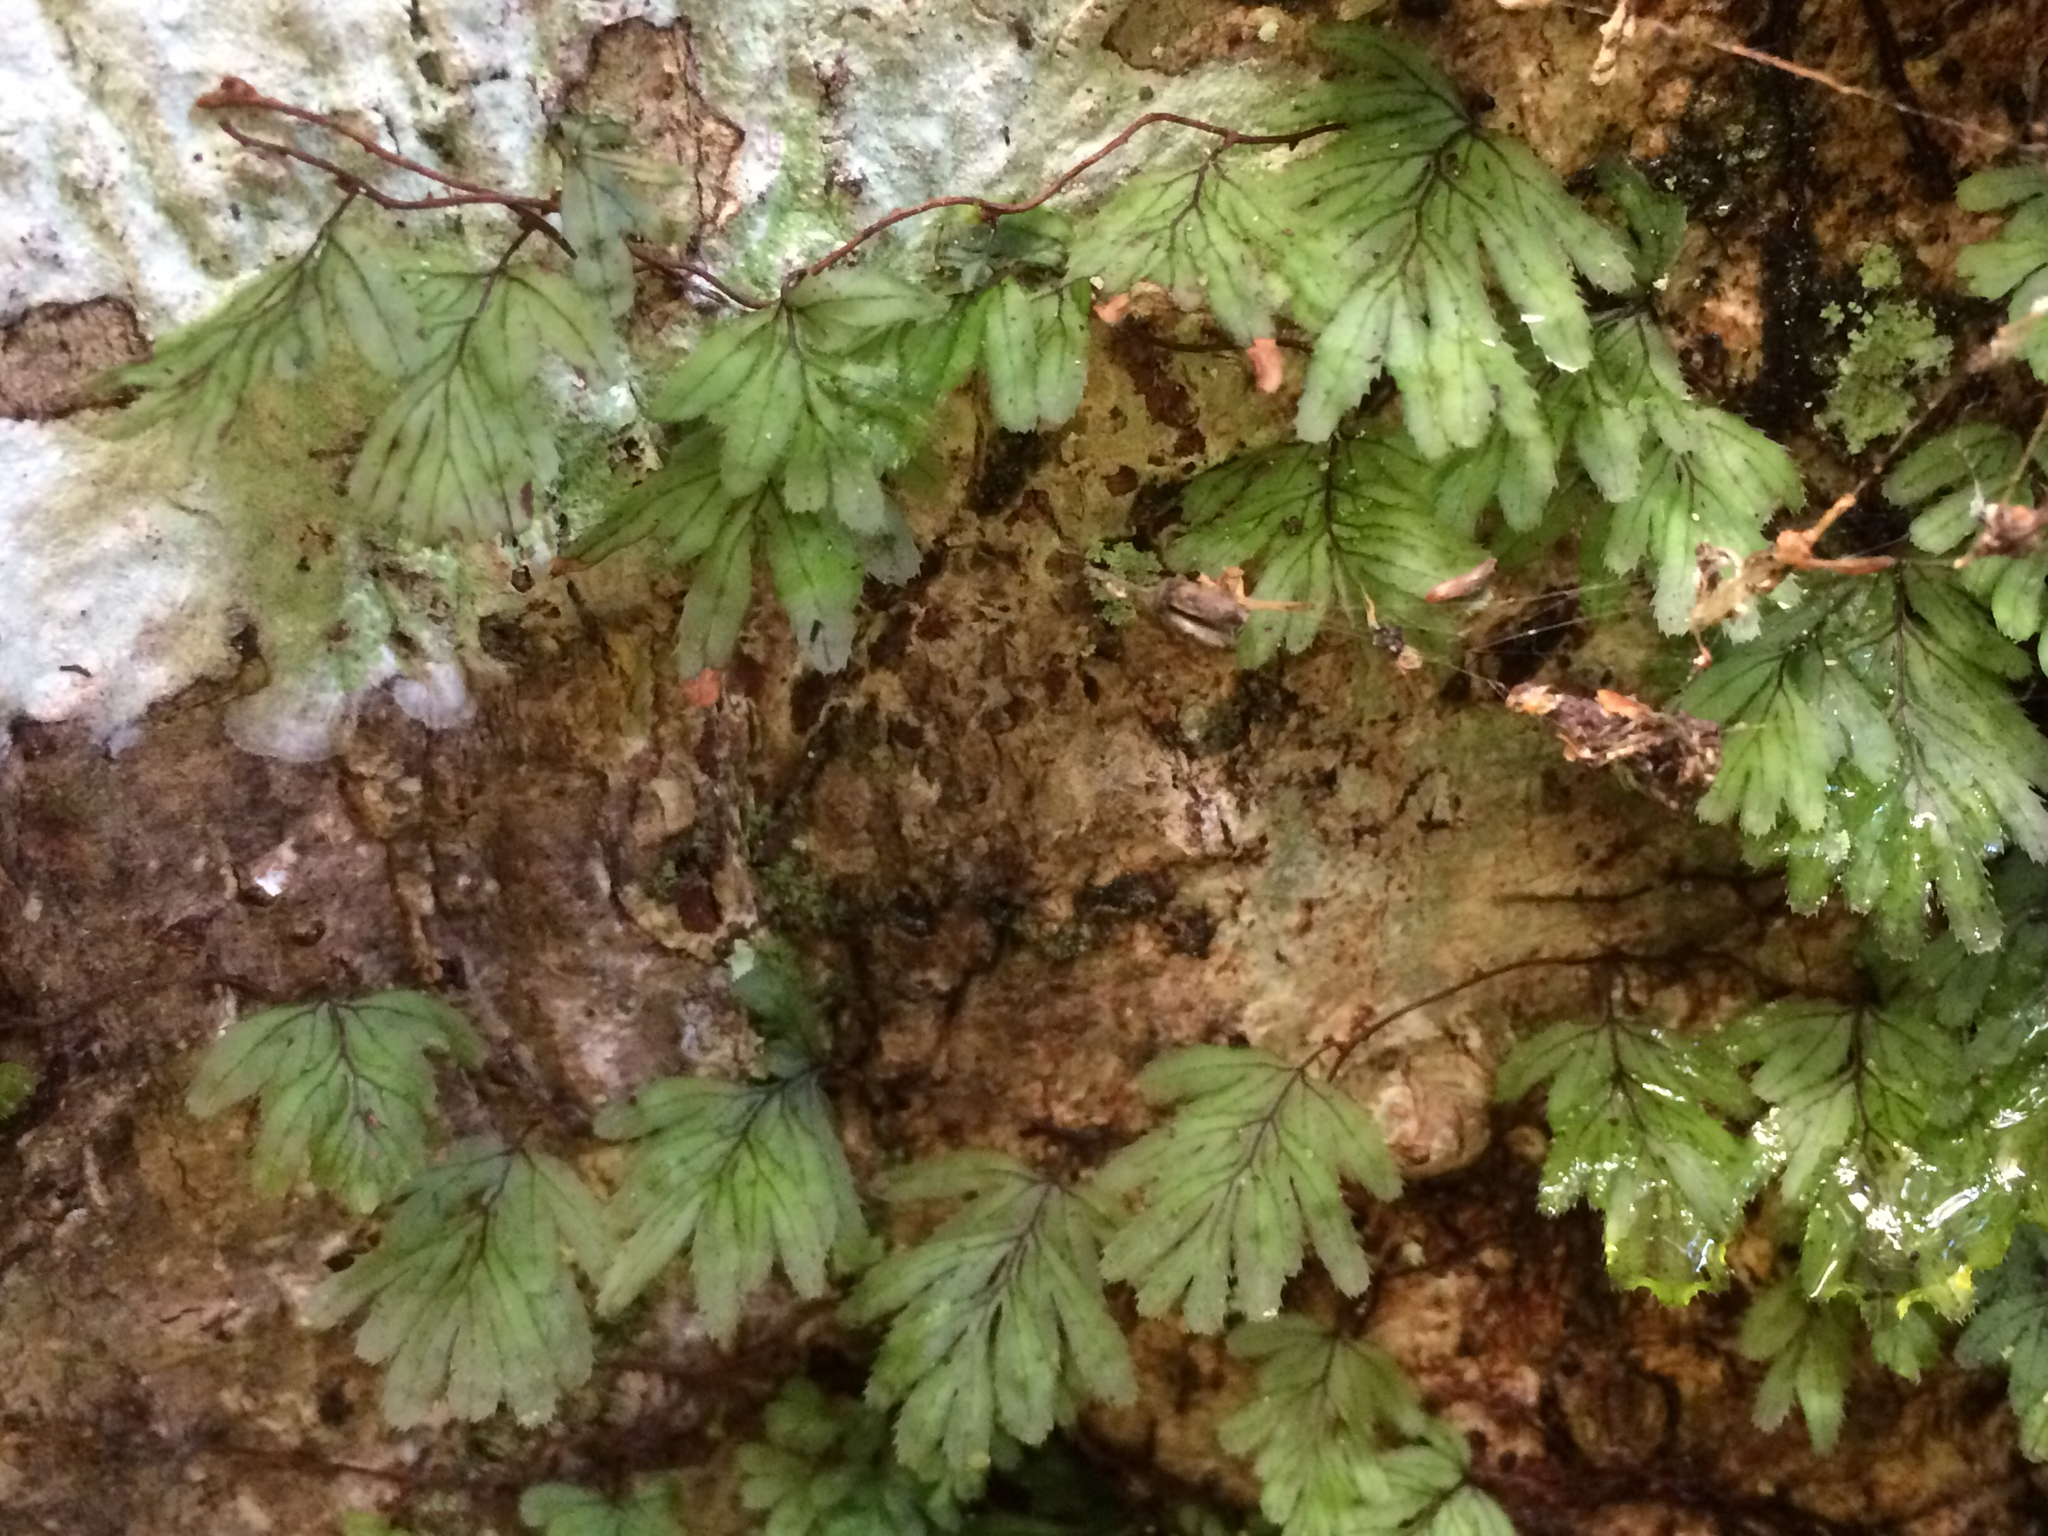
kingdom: Plantae
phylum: Tracheophyta
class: Polypodiopsida
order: Hymenophyllales
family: Hymenophyllaceae
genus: Hymenophyllum
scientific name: Hymenophyllum revolutum
